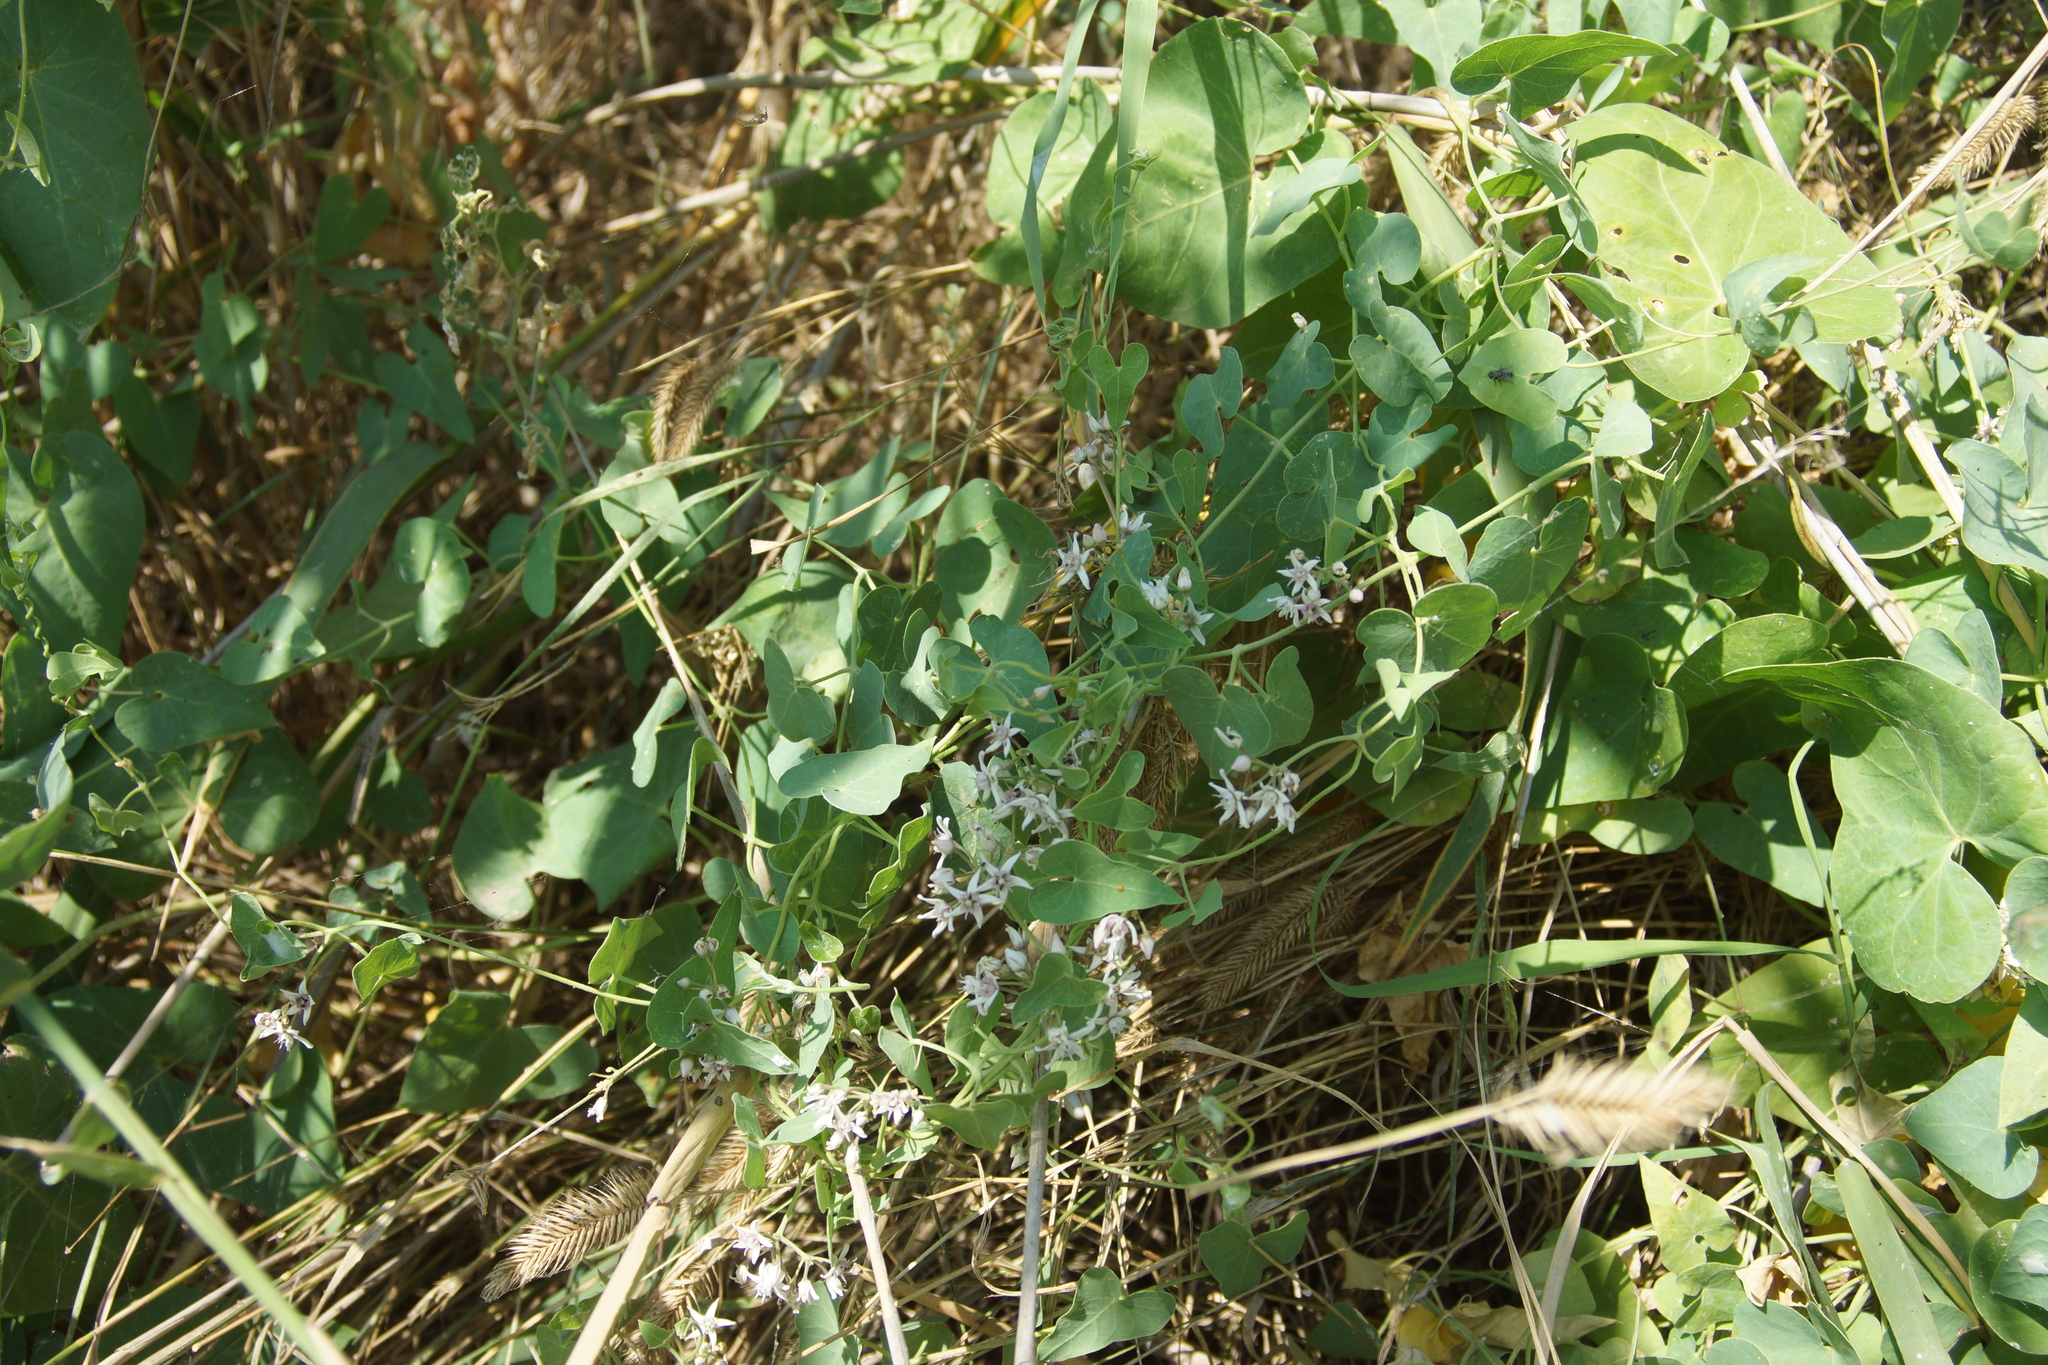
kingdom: Plantae
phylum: Tracheophyta
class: Magnoliopsida
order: Gentianales
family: Apocynaceae
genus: Cynanchum
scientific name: Cynanchum acutum
